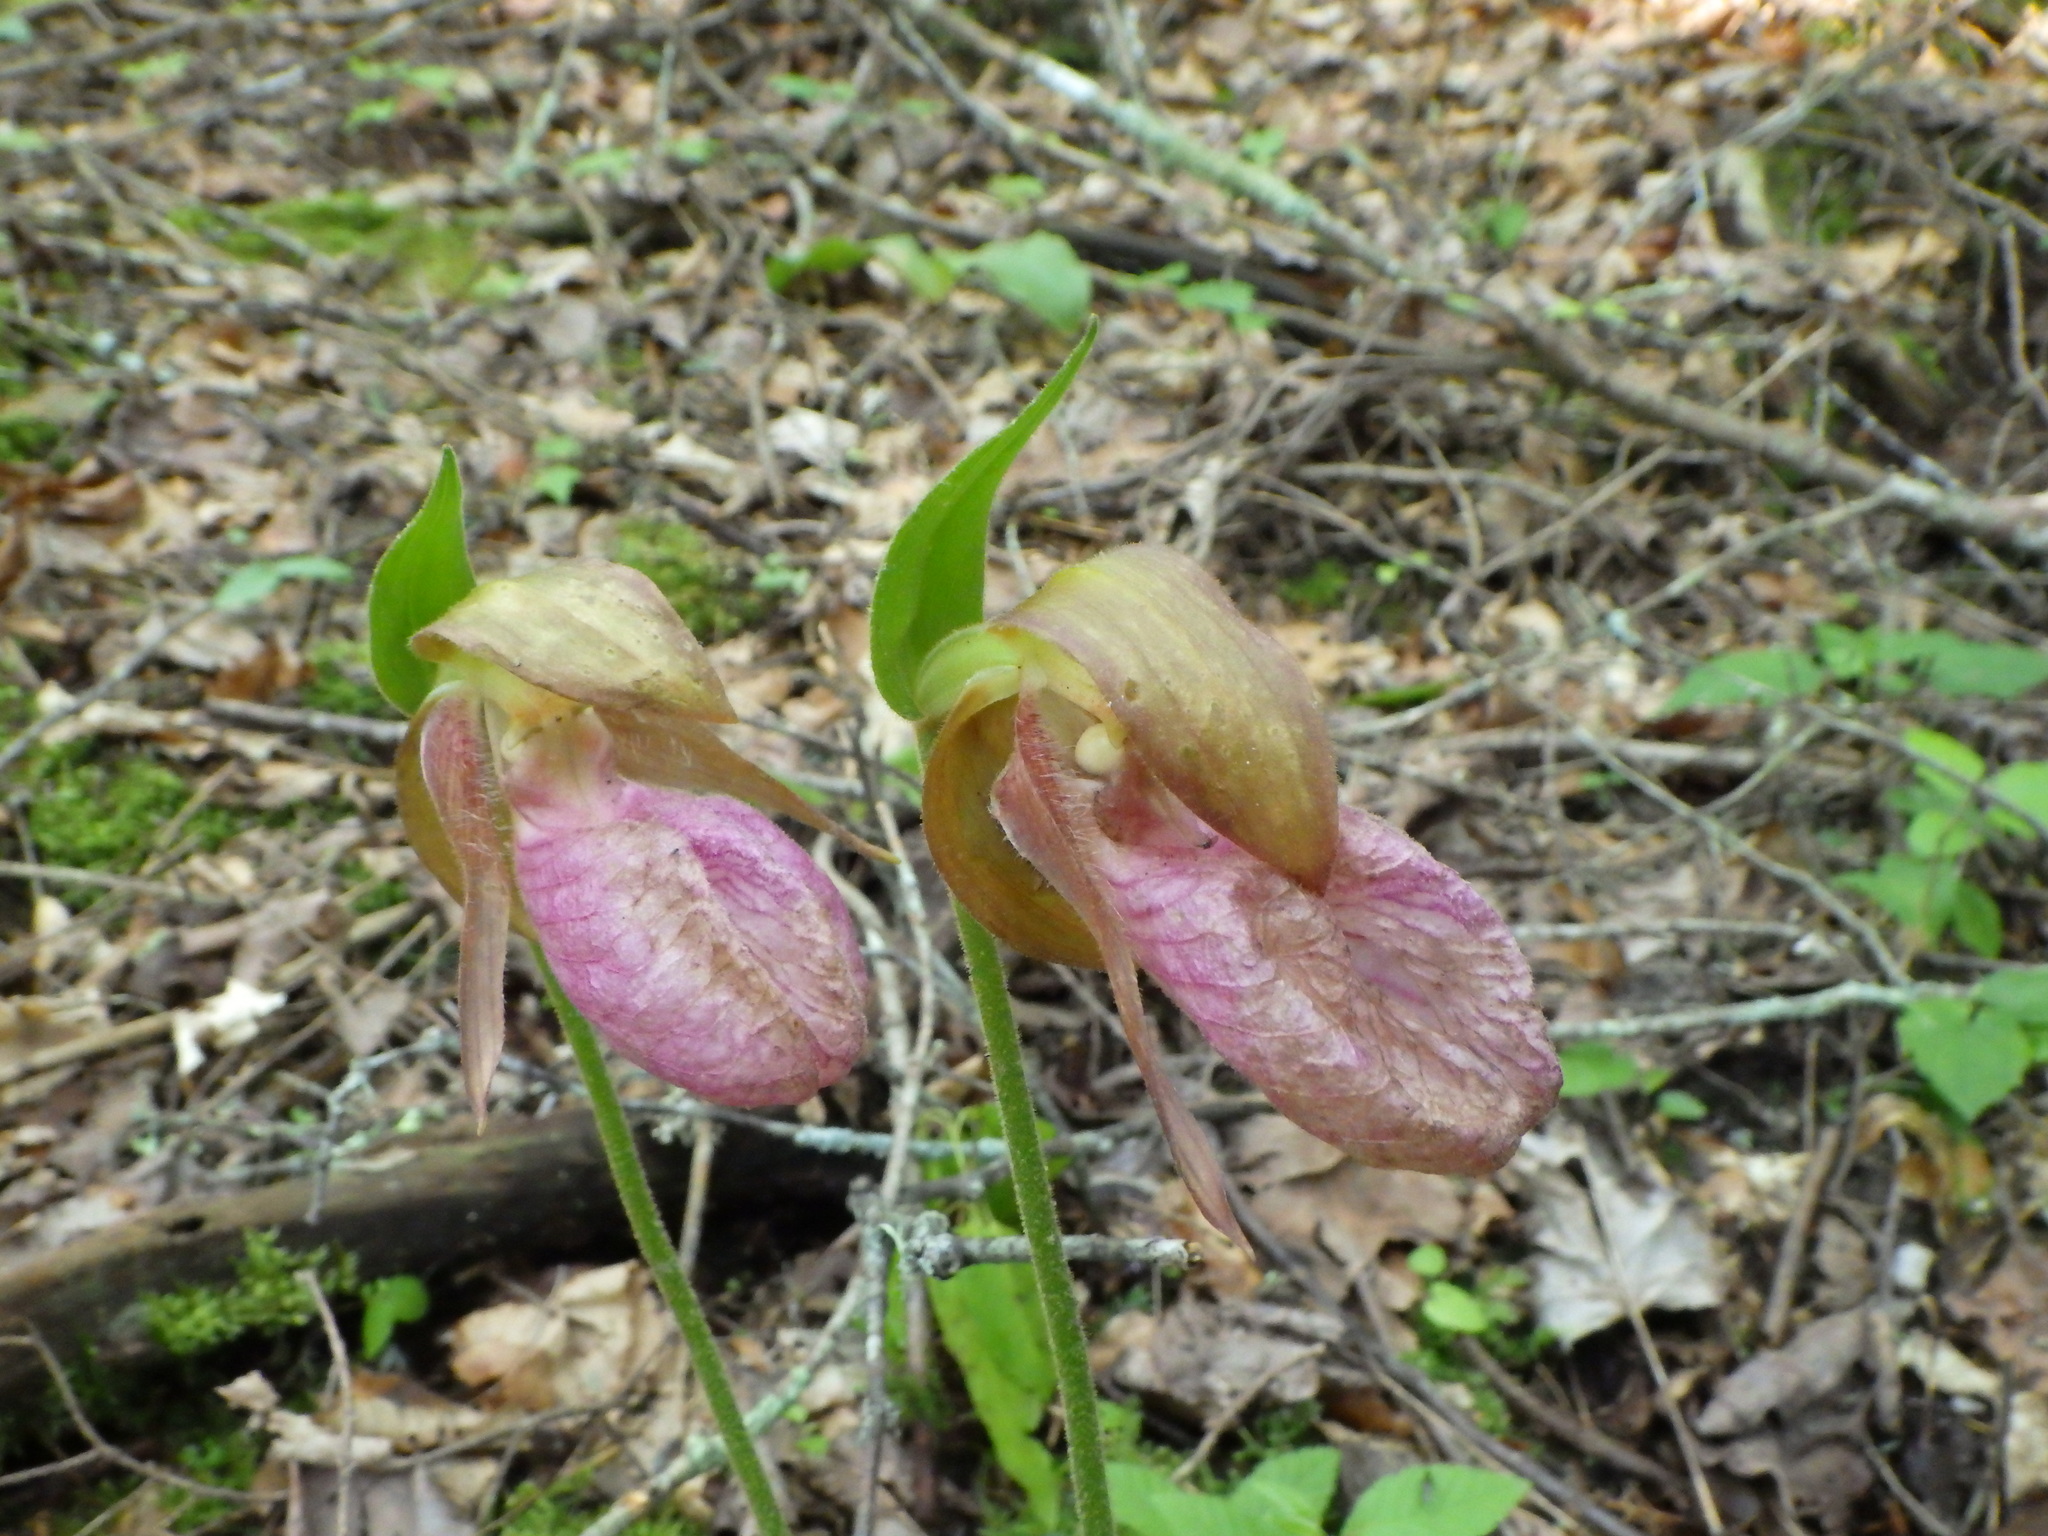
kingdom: Plantae
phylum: Tracheophyta
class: Liliopsida
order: Asparagales
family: Orchidaceae
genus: Cypripedium
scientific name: Cypripedium acaule
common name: Pink lady's-slipper
